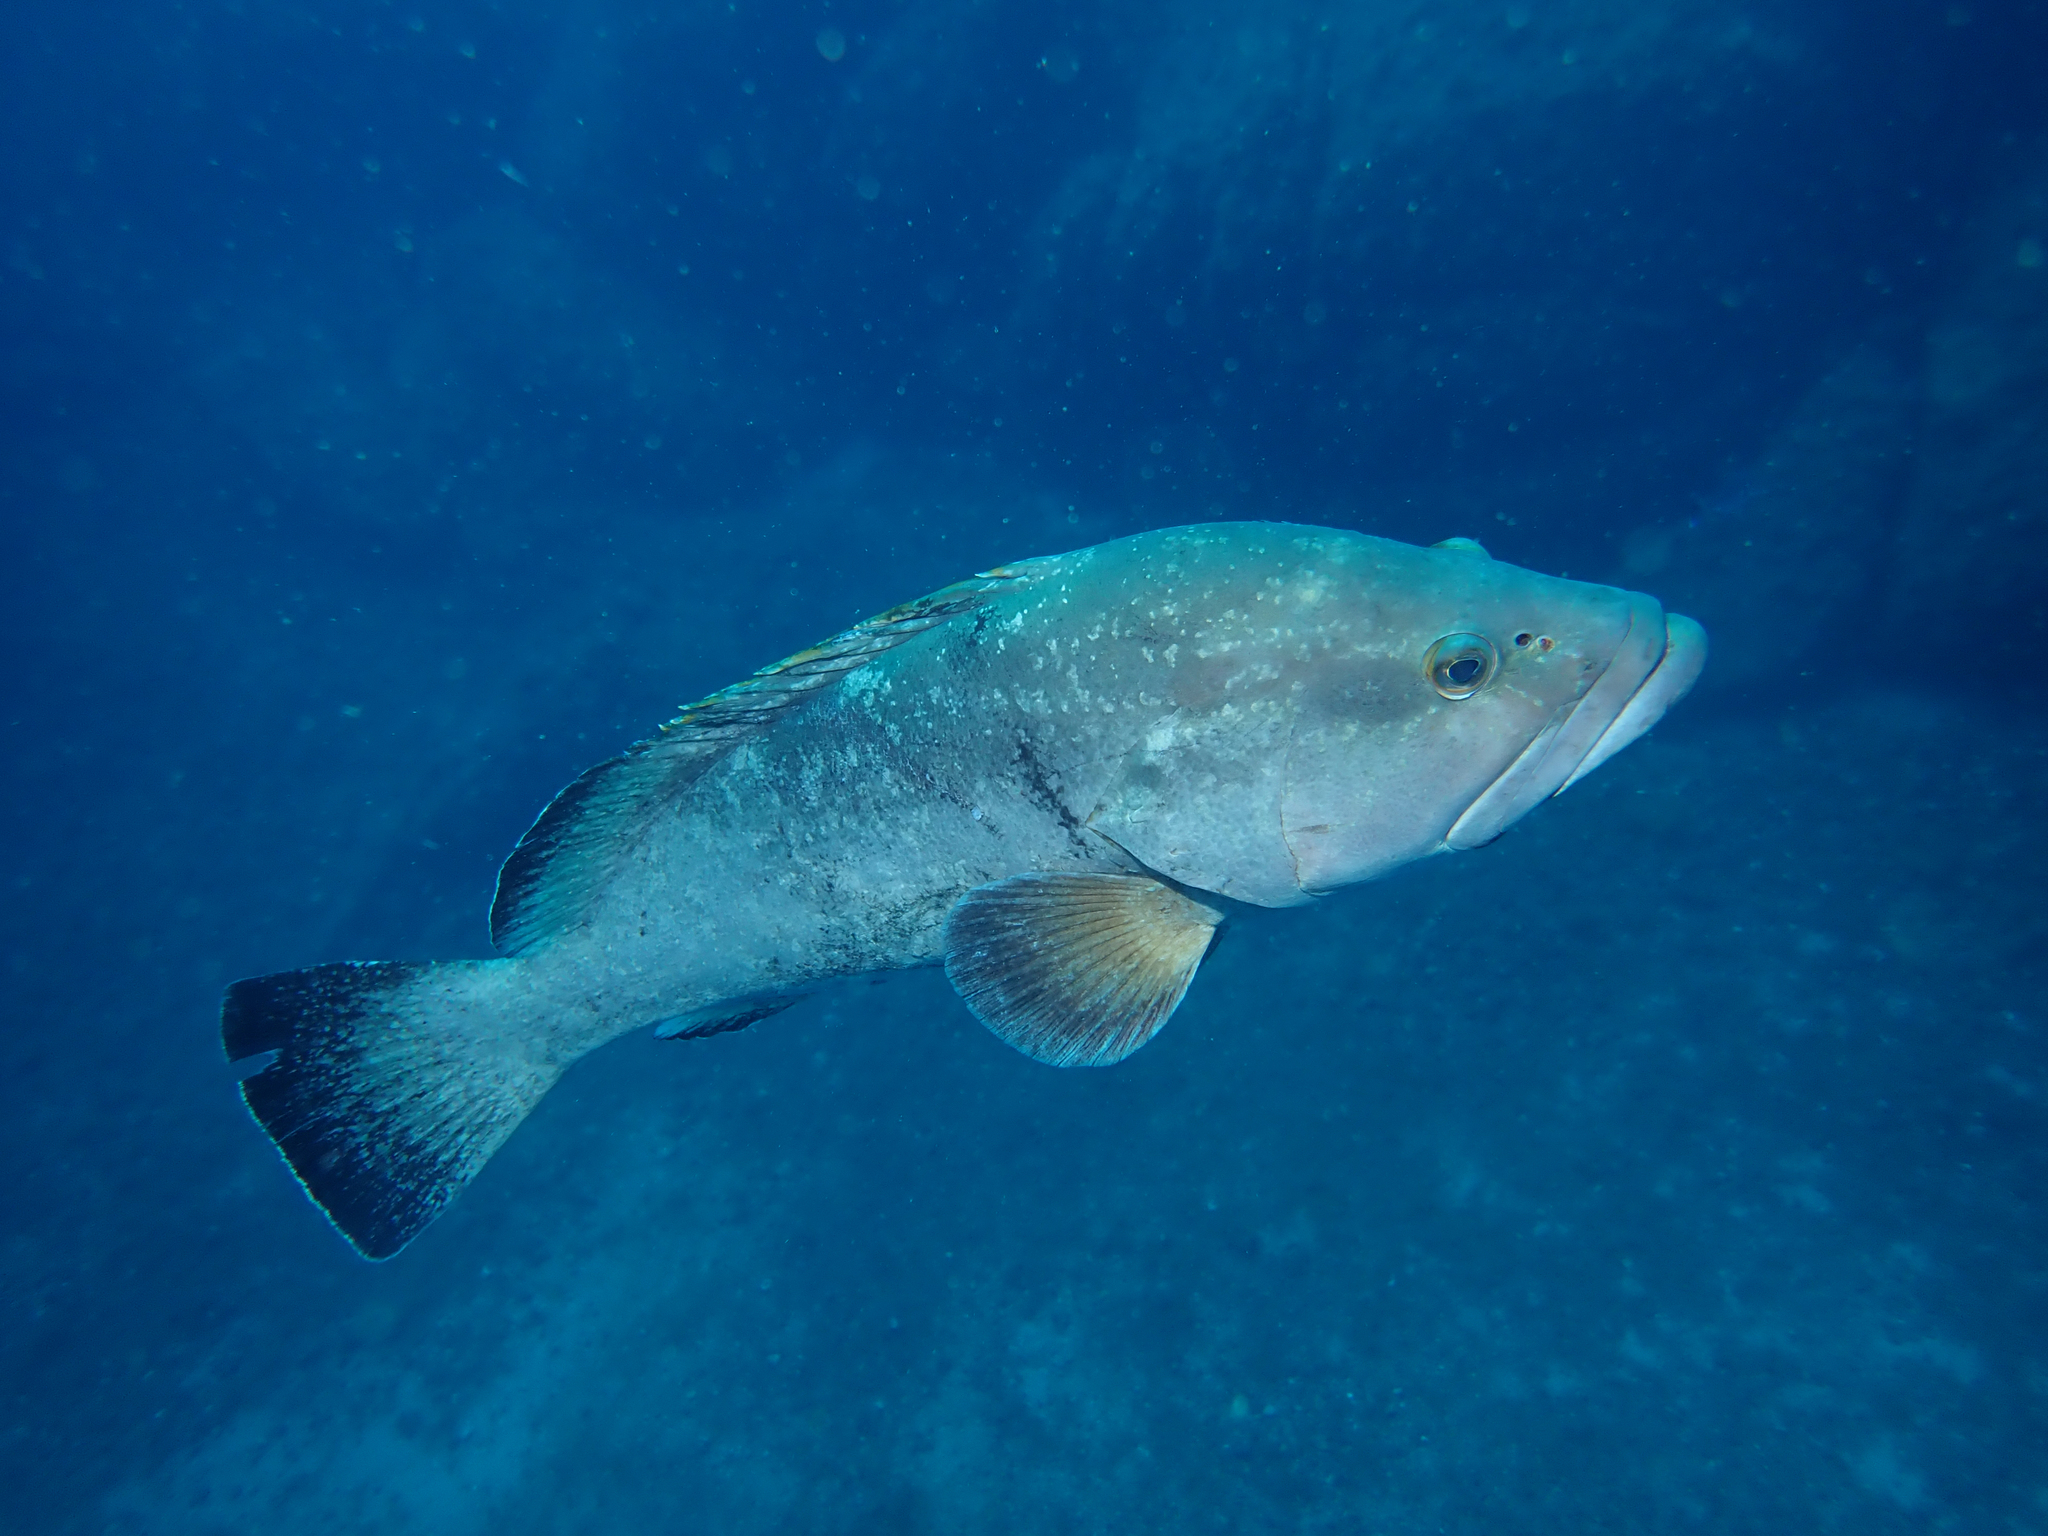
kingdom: Animalia
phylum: Chordata
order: Perciformes
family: Serranidae
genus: Epinephelus
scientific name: Epinephelus marginatus
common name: Dusky grouper
